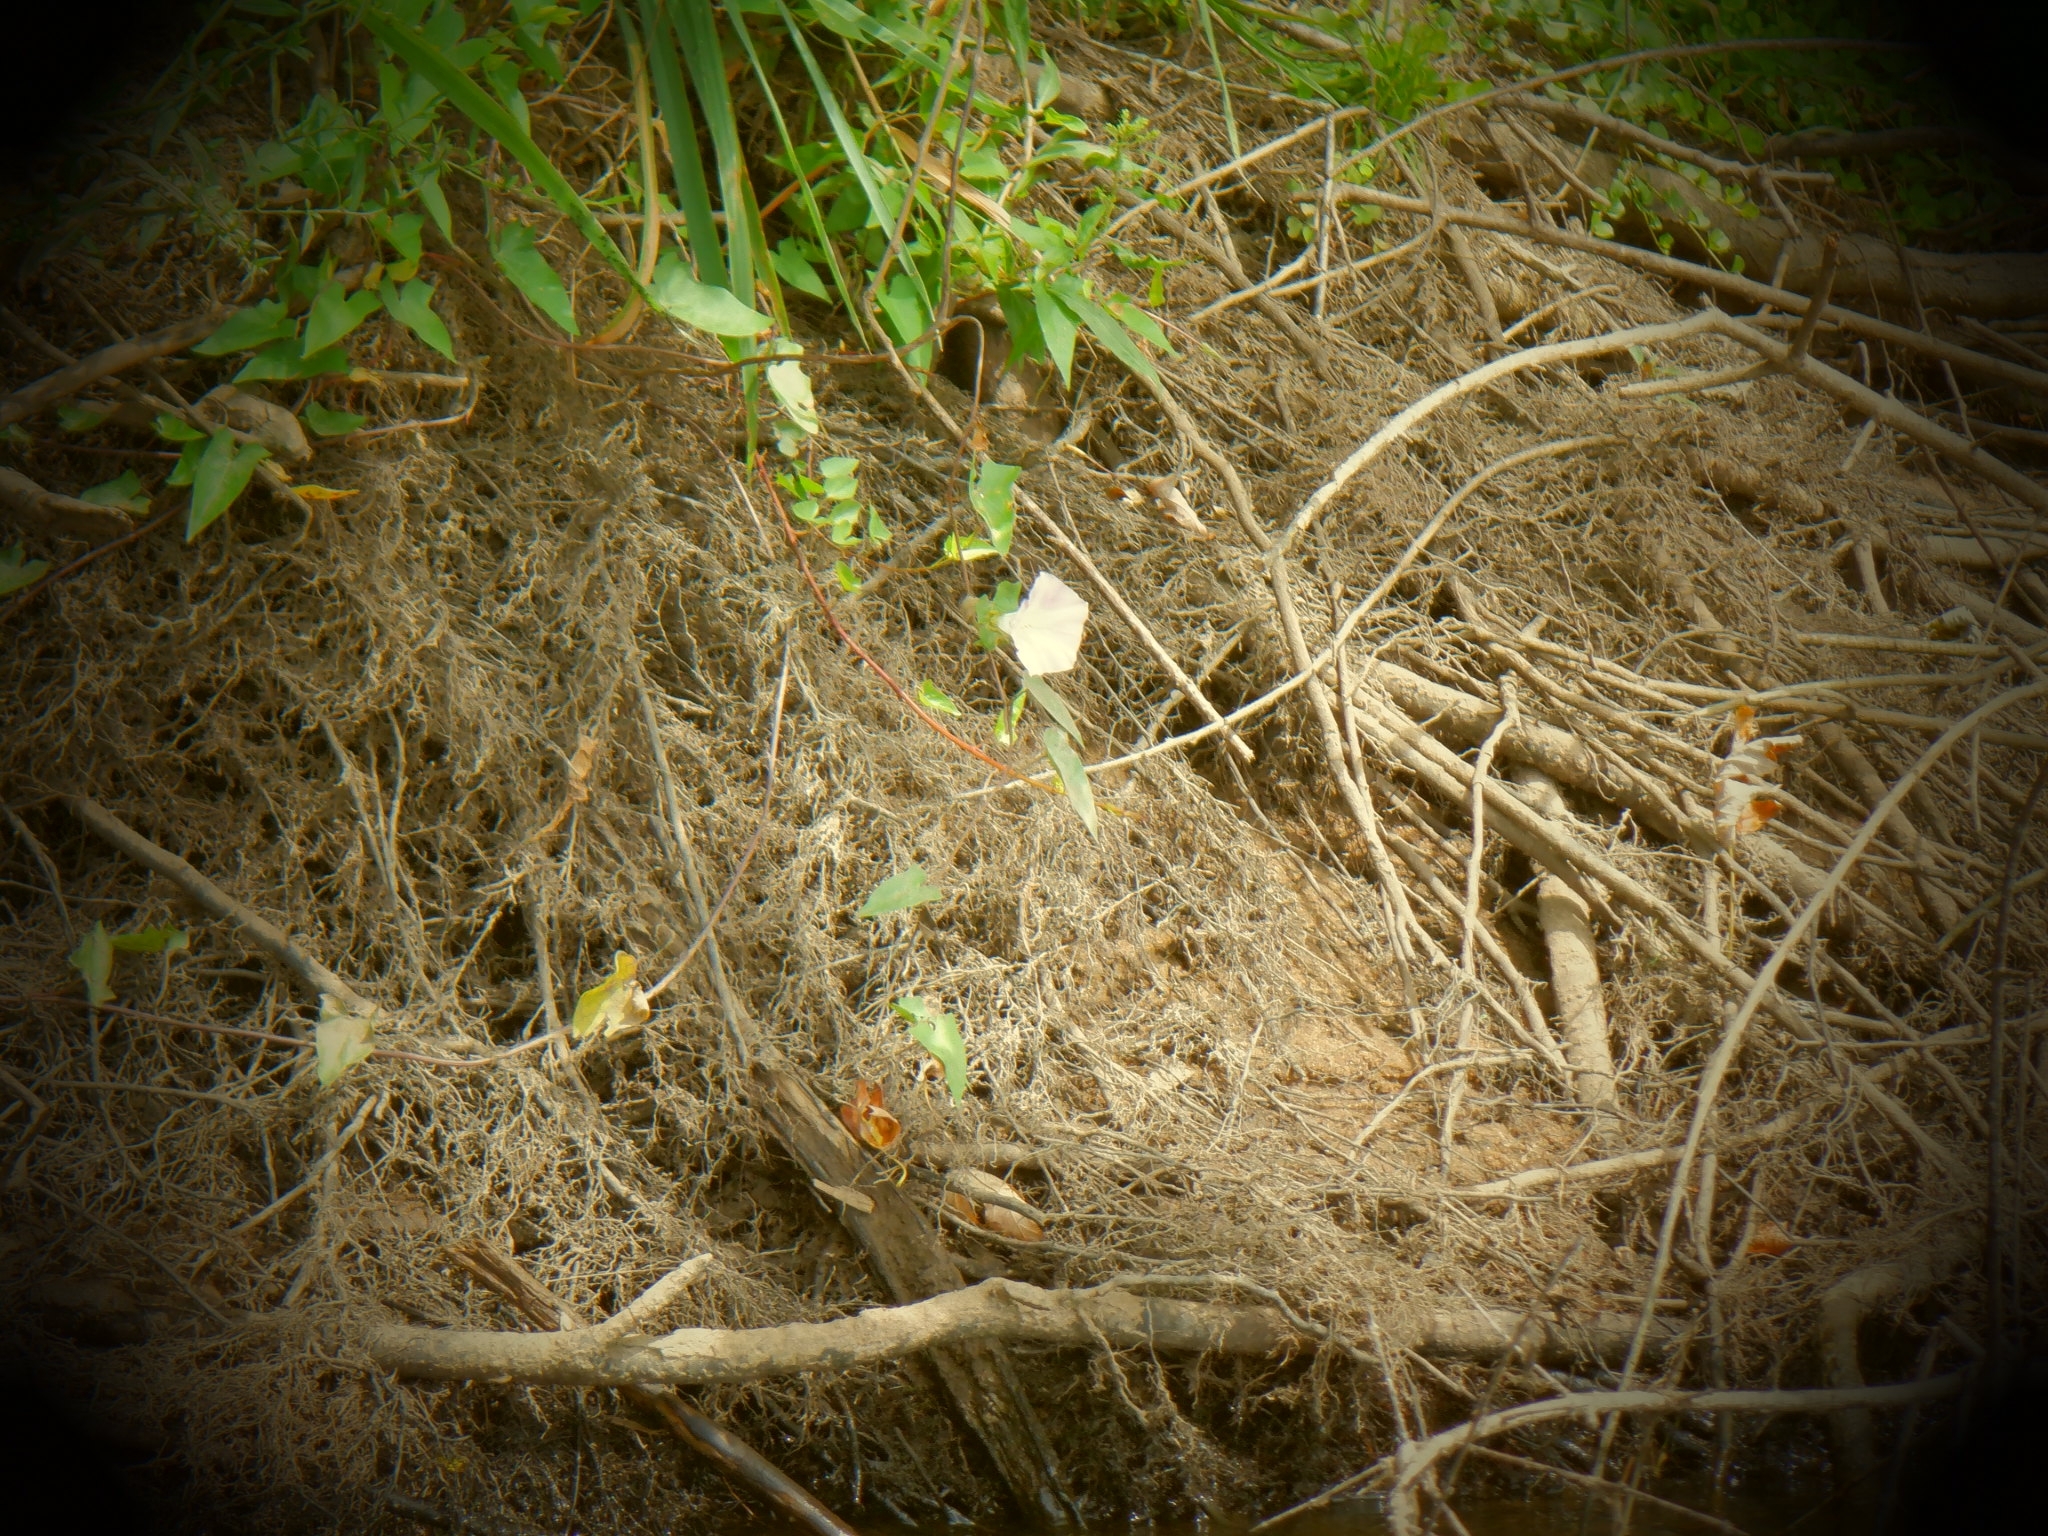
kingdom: Plantae
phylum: Tracheophyta
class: Magnoliopsida
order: Solanales
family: Convolvulaceae
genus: Calystegia
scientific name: Calystegia sepium
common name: Hedge bindweed
